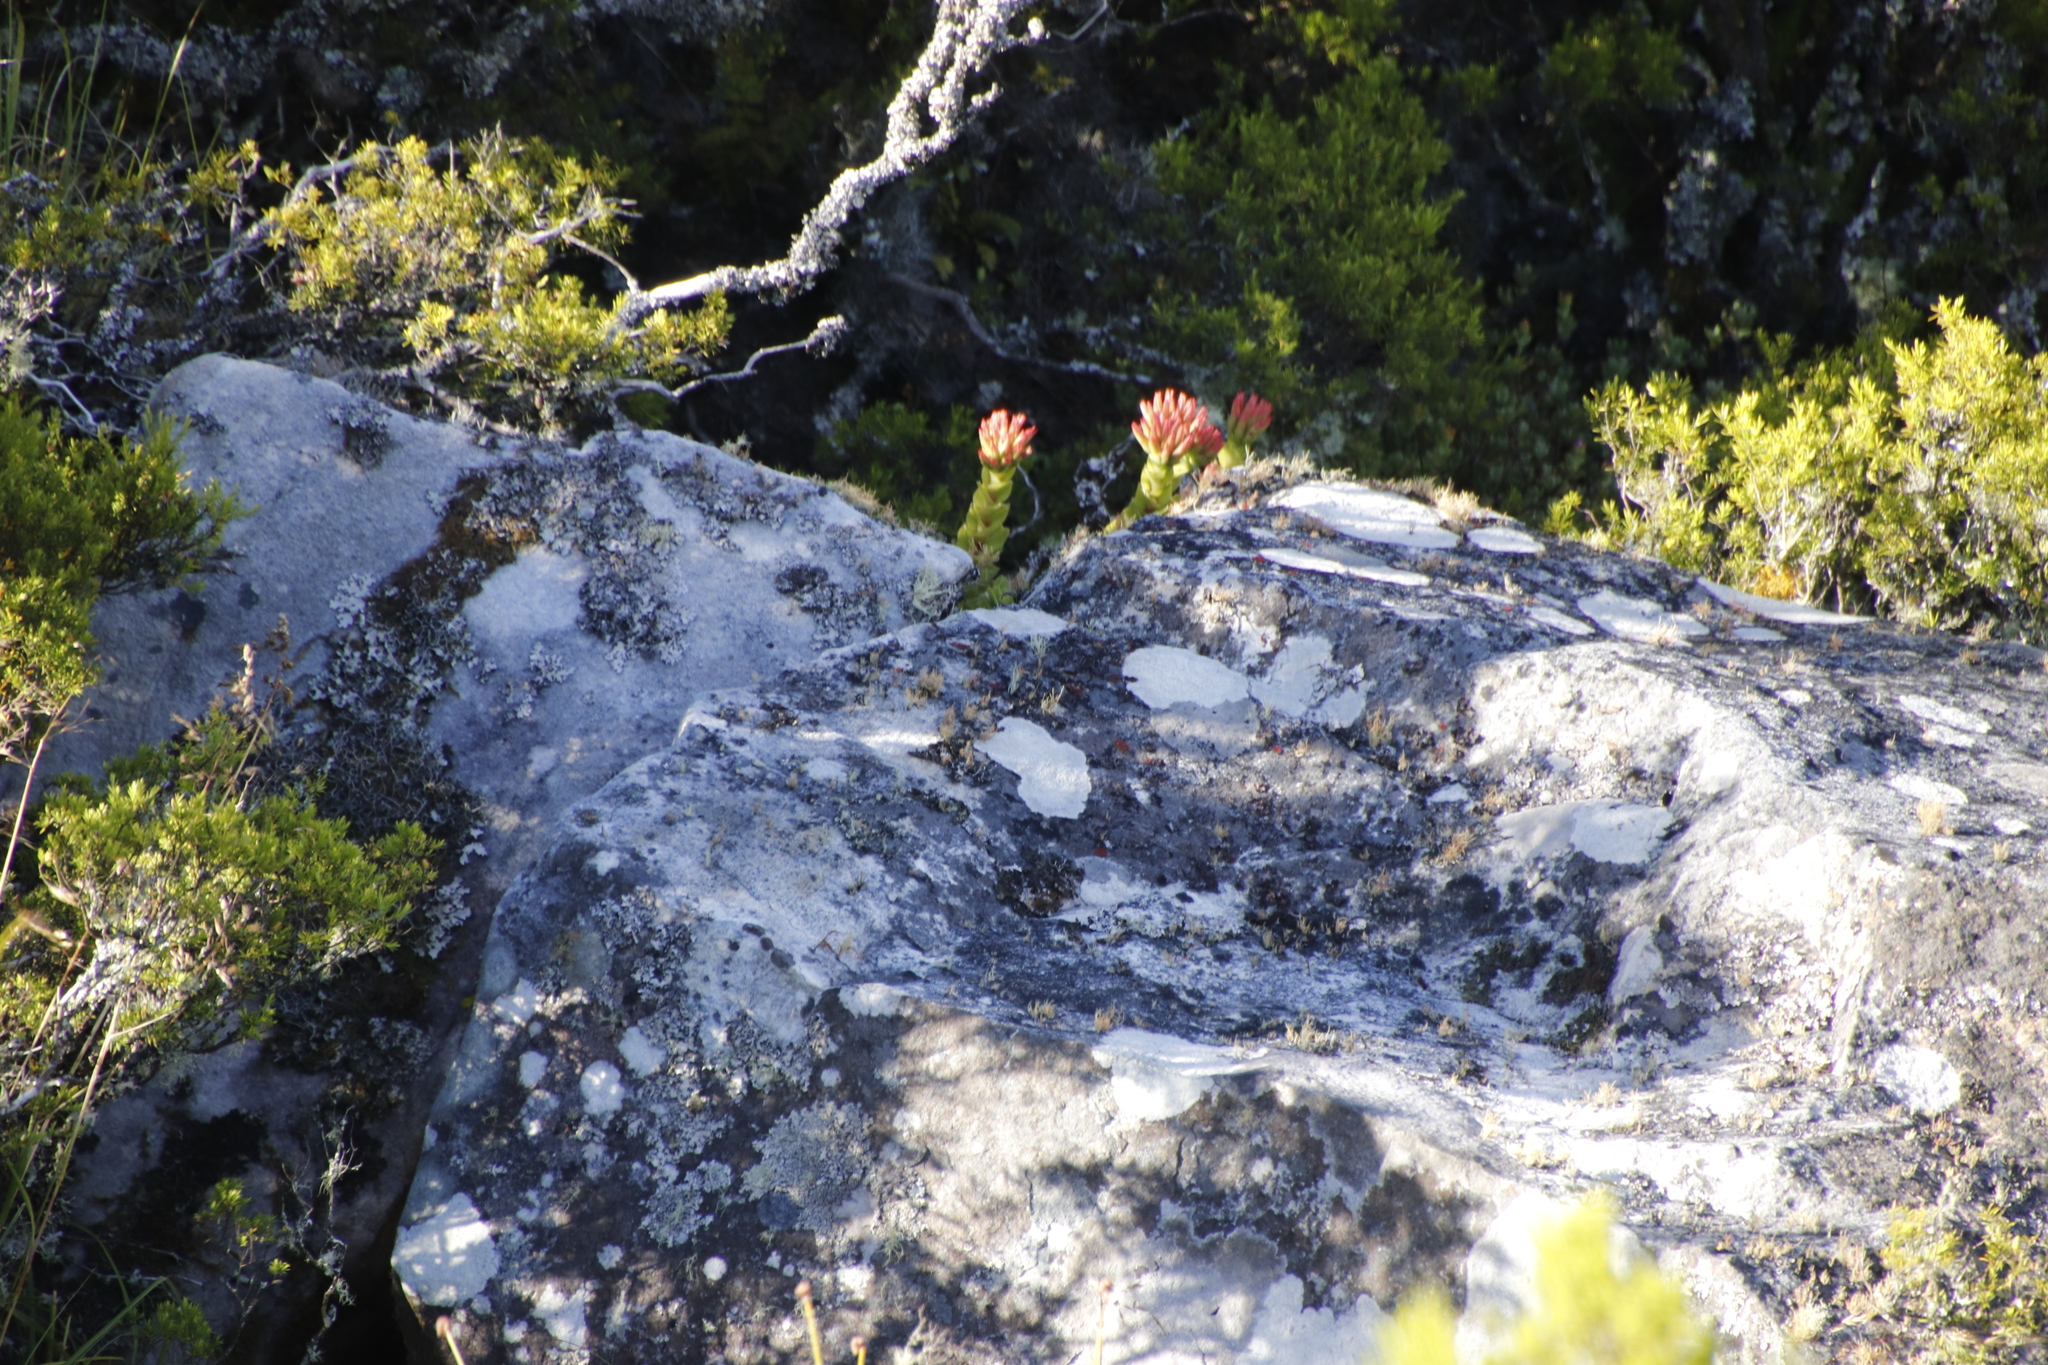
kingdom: Plantae
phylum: Tracheophyta
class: Magnoliopsida
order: Saxifragales
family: Crassulaceae
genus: Crassula
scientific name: Crassula coccinea
